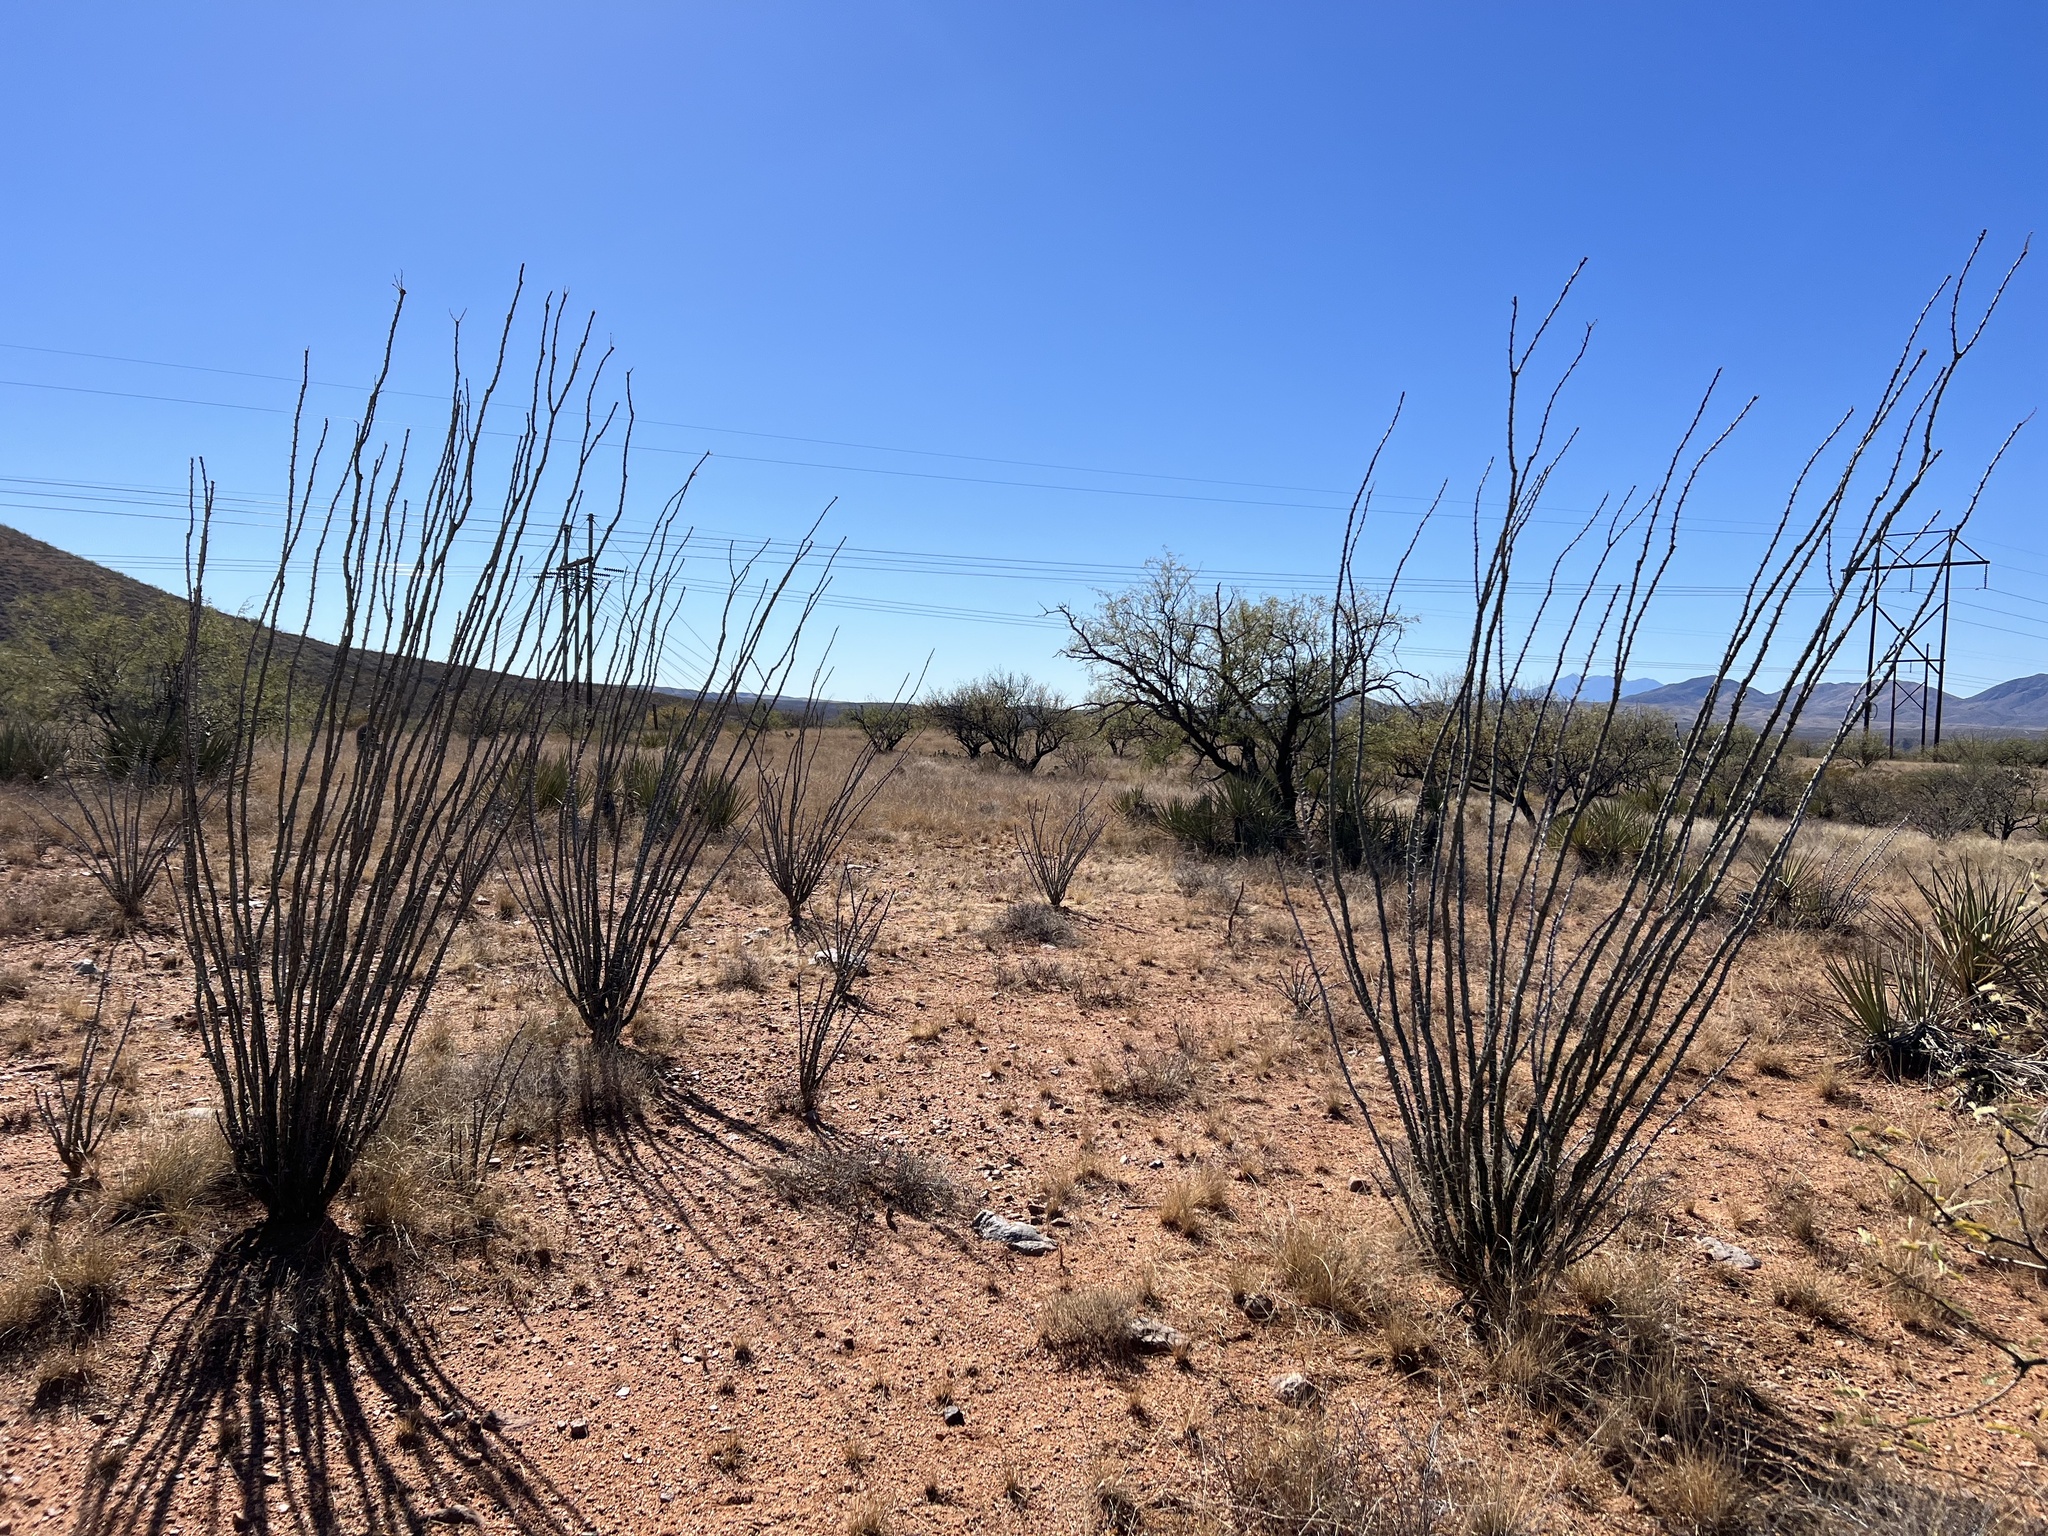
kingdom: Plantae
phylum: Tracheophyta
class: Magnoliopsida
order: Ericales
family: Fouquieriaceae
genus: Fouquieria
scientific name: Fouquieria splendens
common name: Vine-cactus
